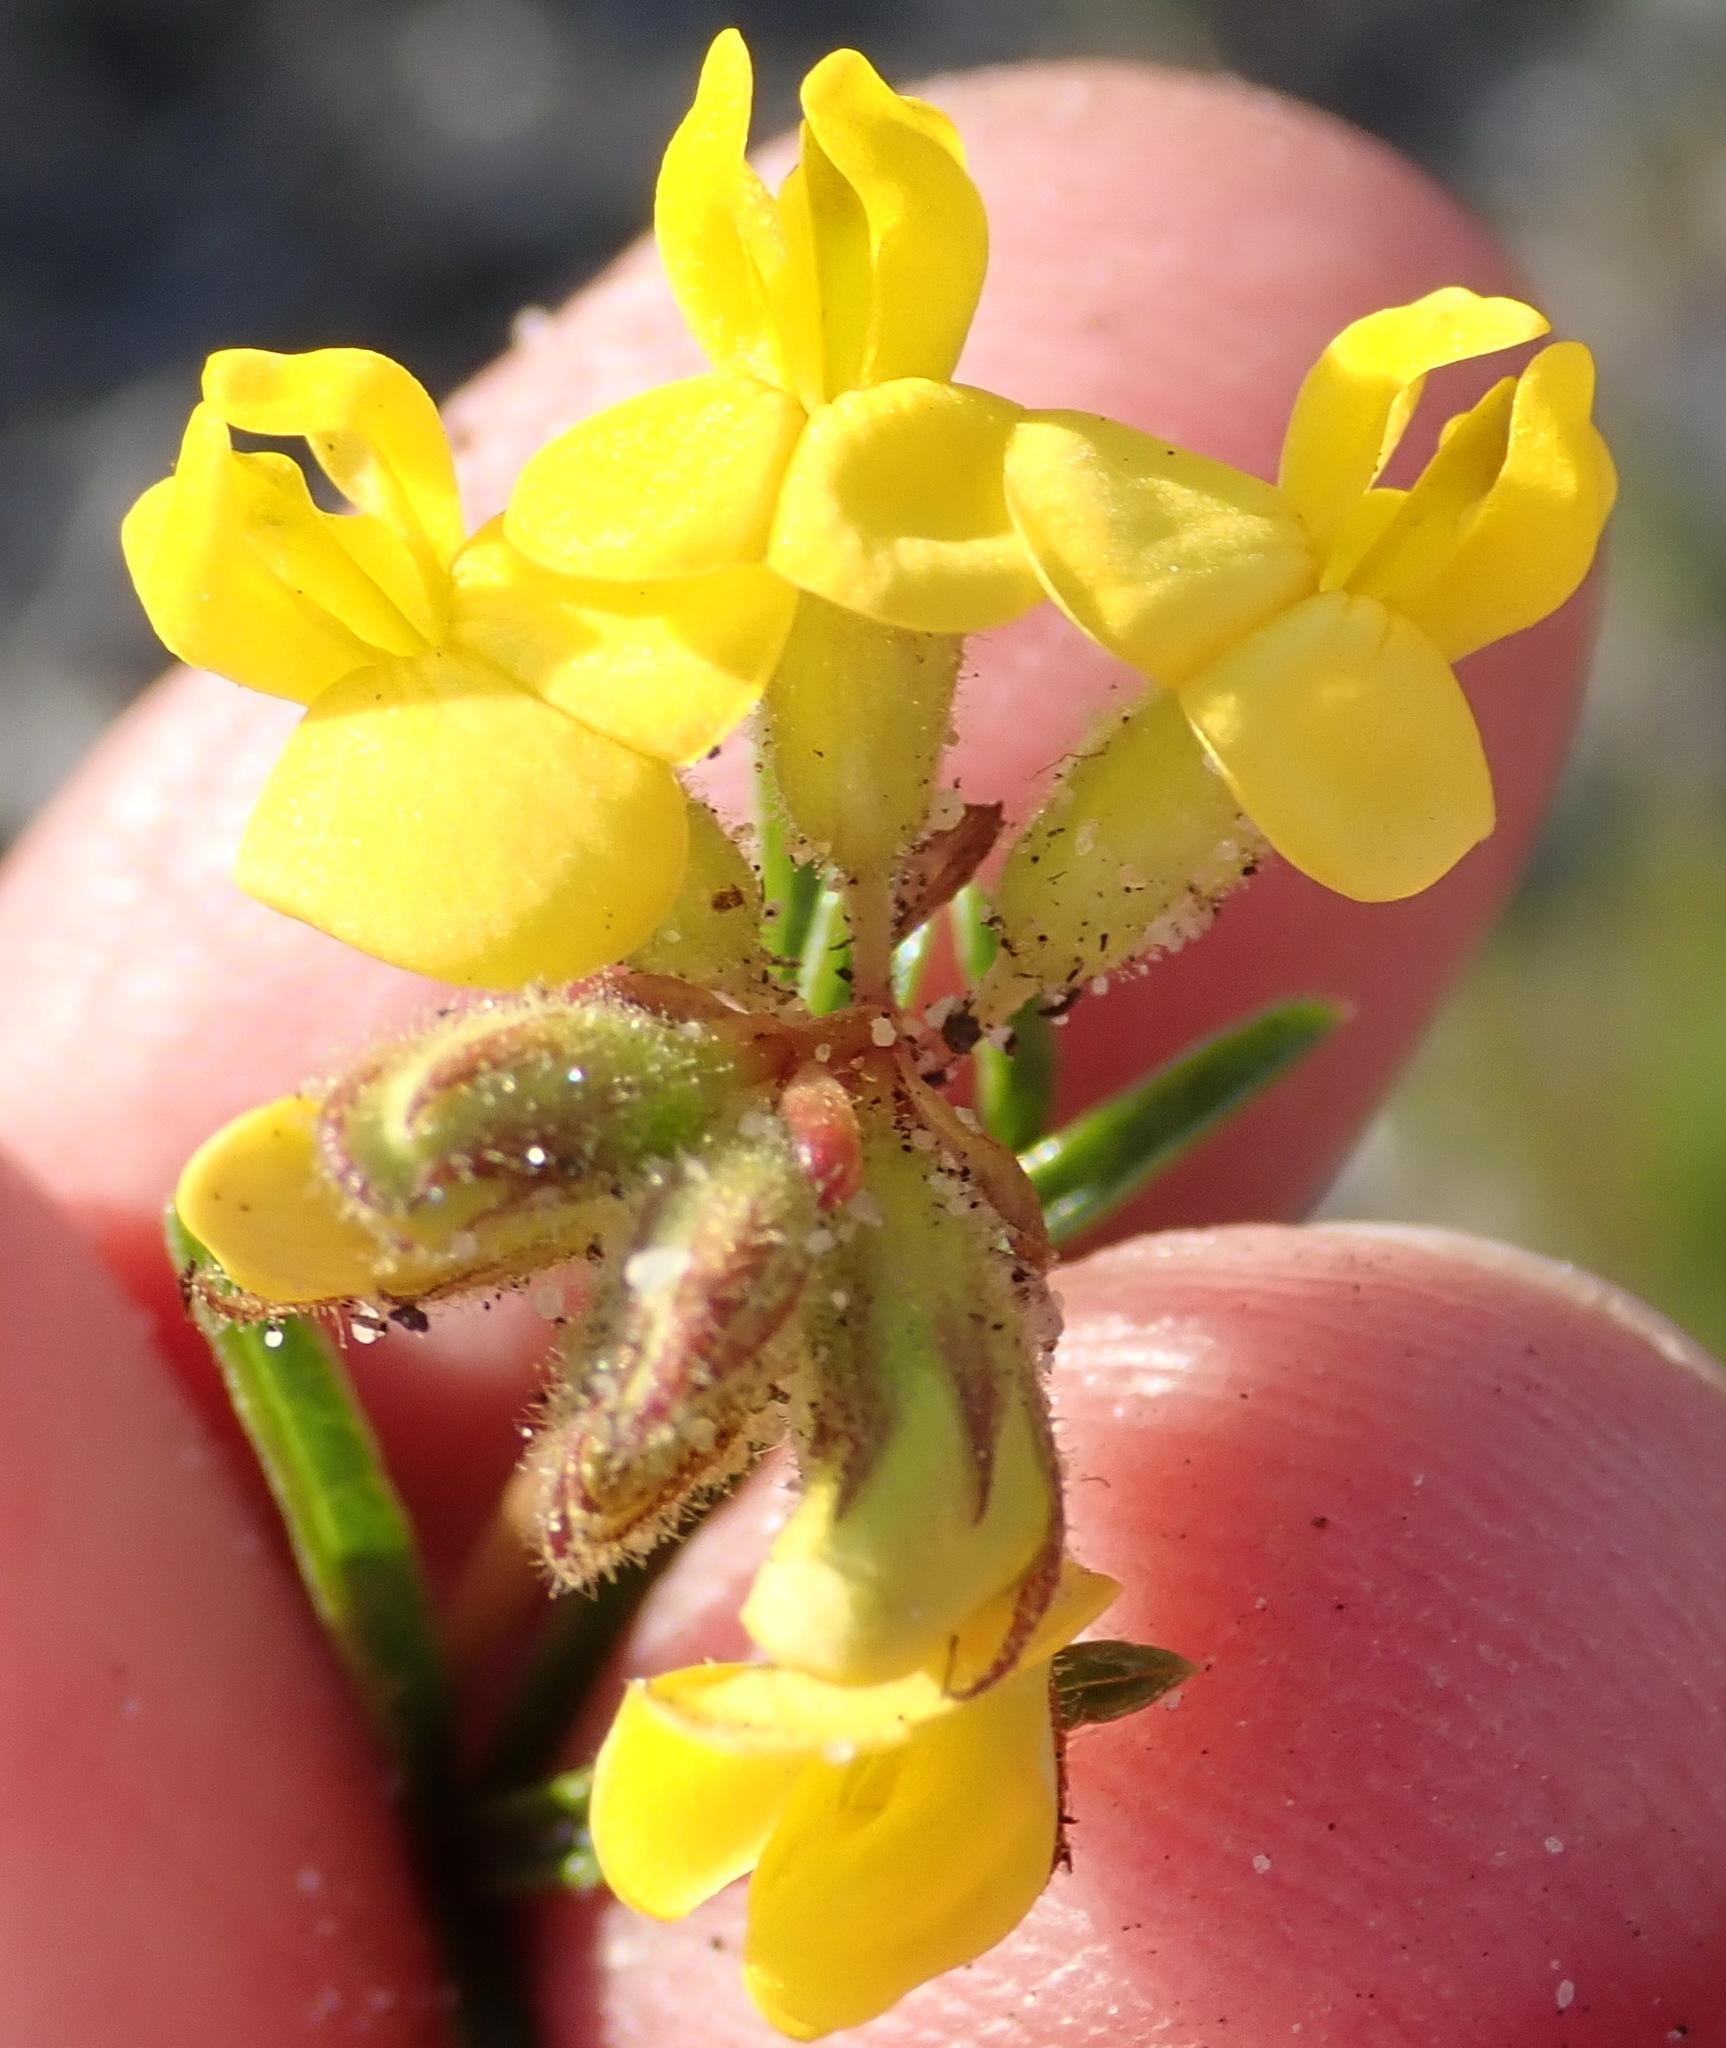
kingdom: Plantae
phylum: Tracheophyta
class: Magnoliopsida
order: Fabales
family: Fabaceae
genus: Rhynchosia
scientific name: Rhynchosia ferulifolia
